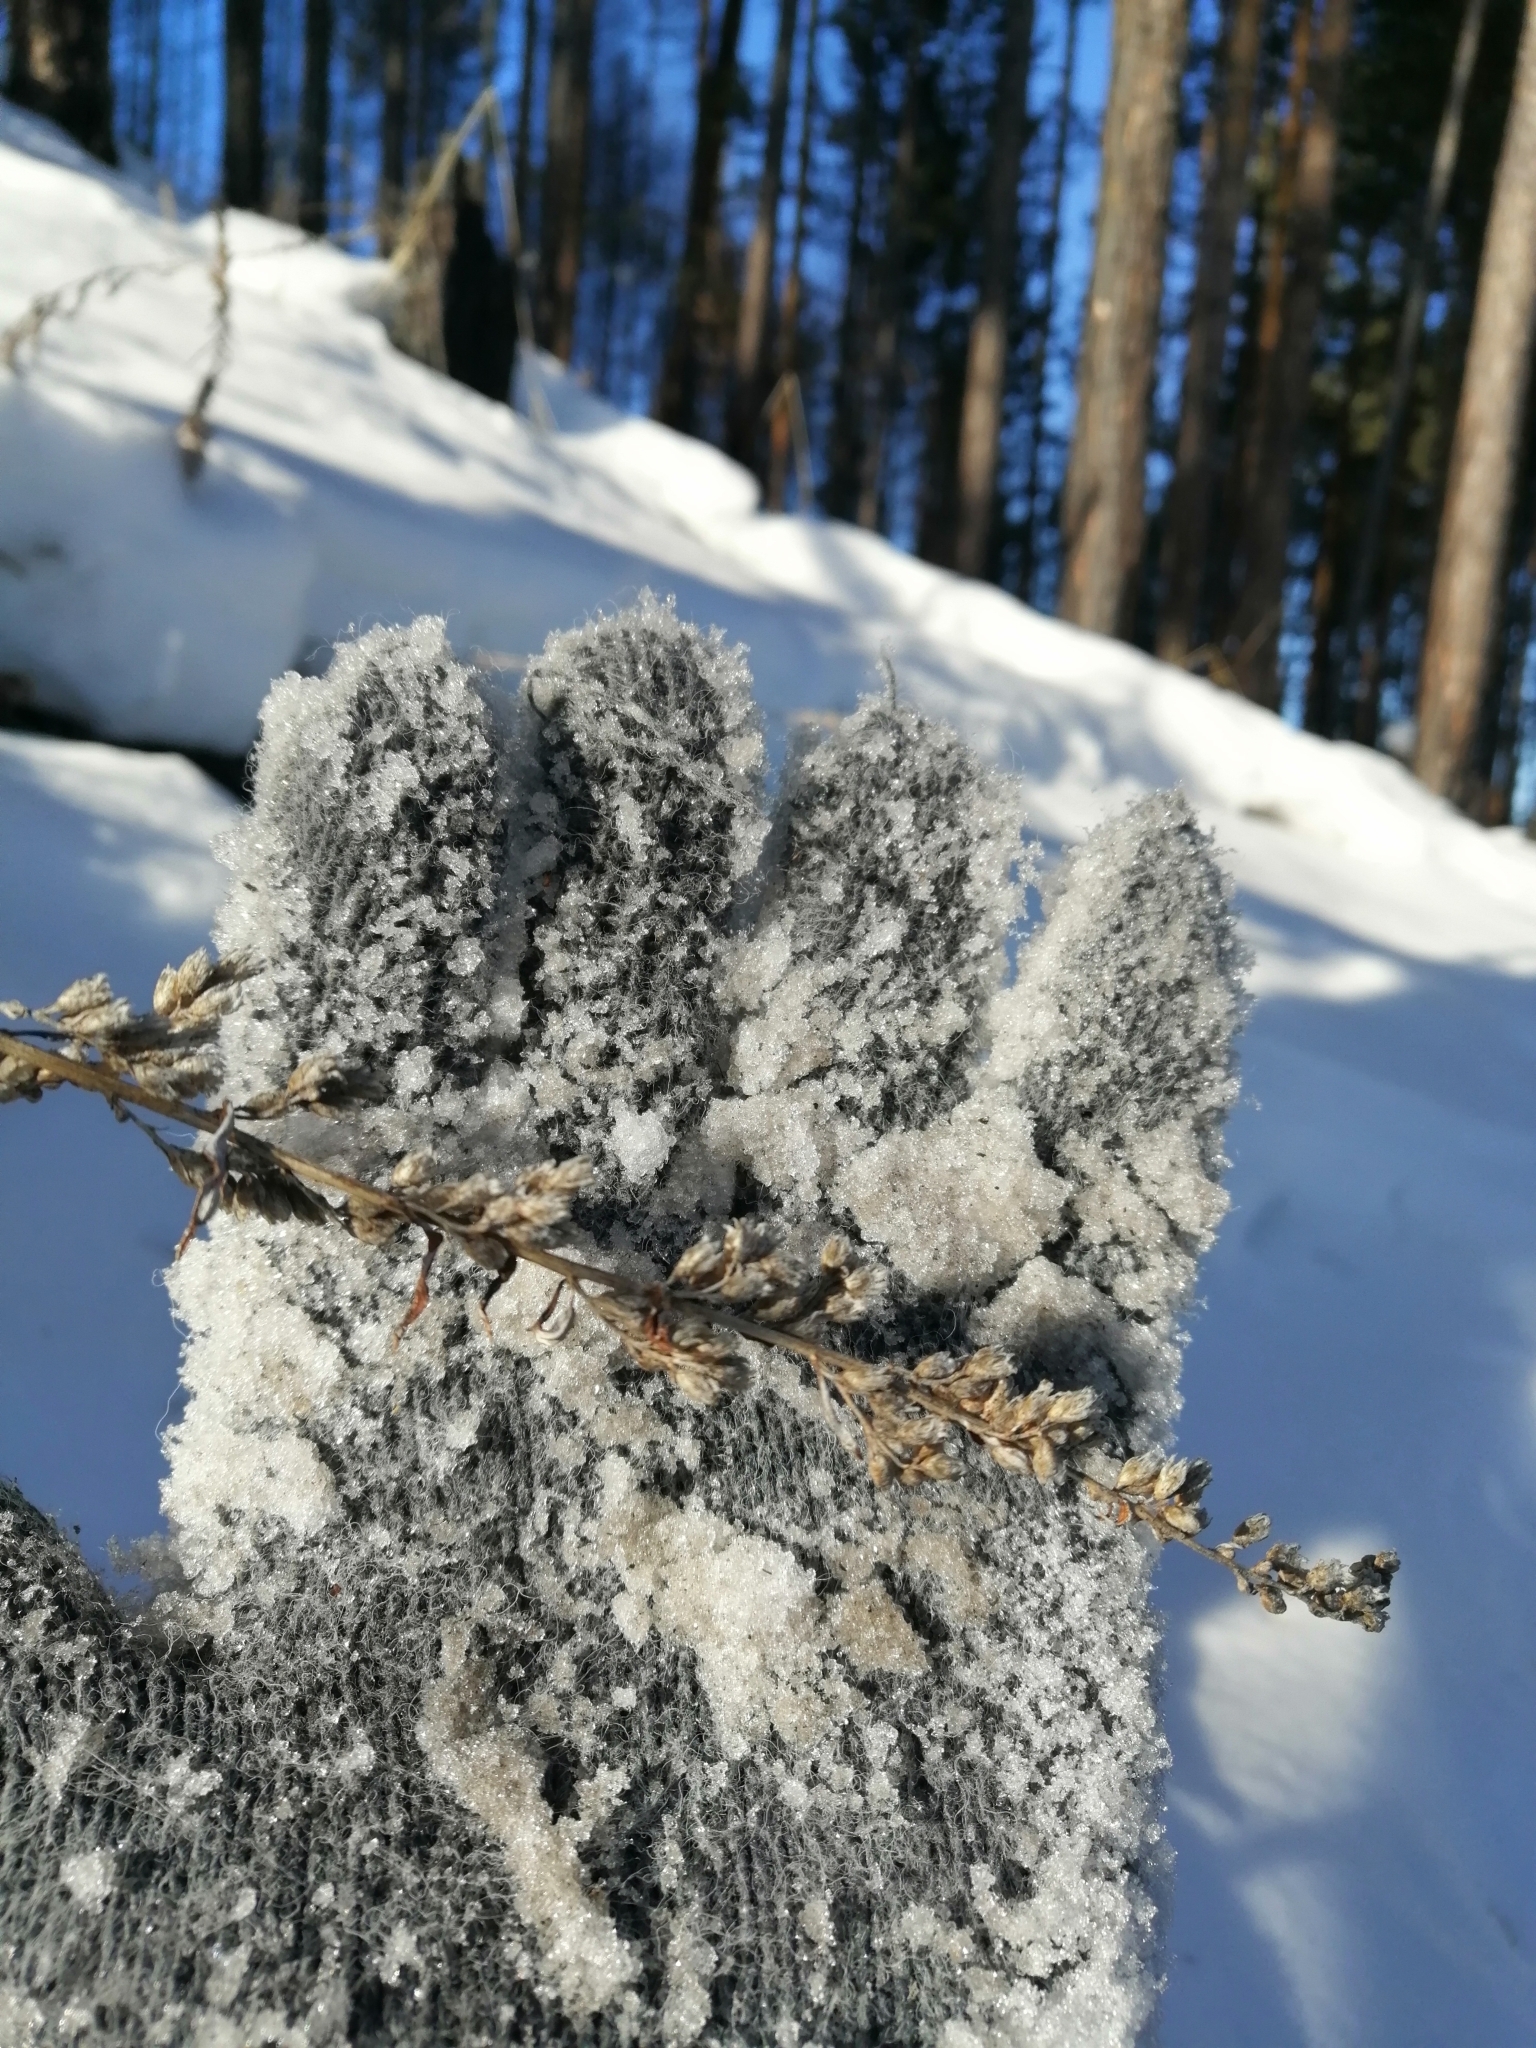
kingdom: Plantae
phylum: Tracheophyta
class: Magnoliopsida
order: Asterales
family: Asteraceae
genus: Artemisia
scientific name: Artemisia integrifolia
